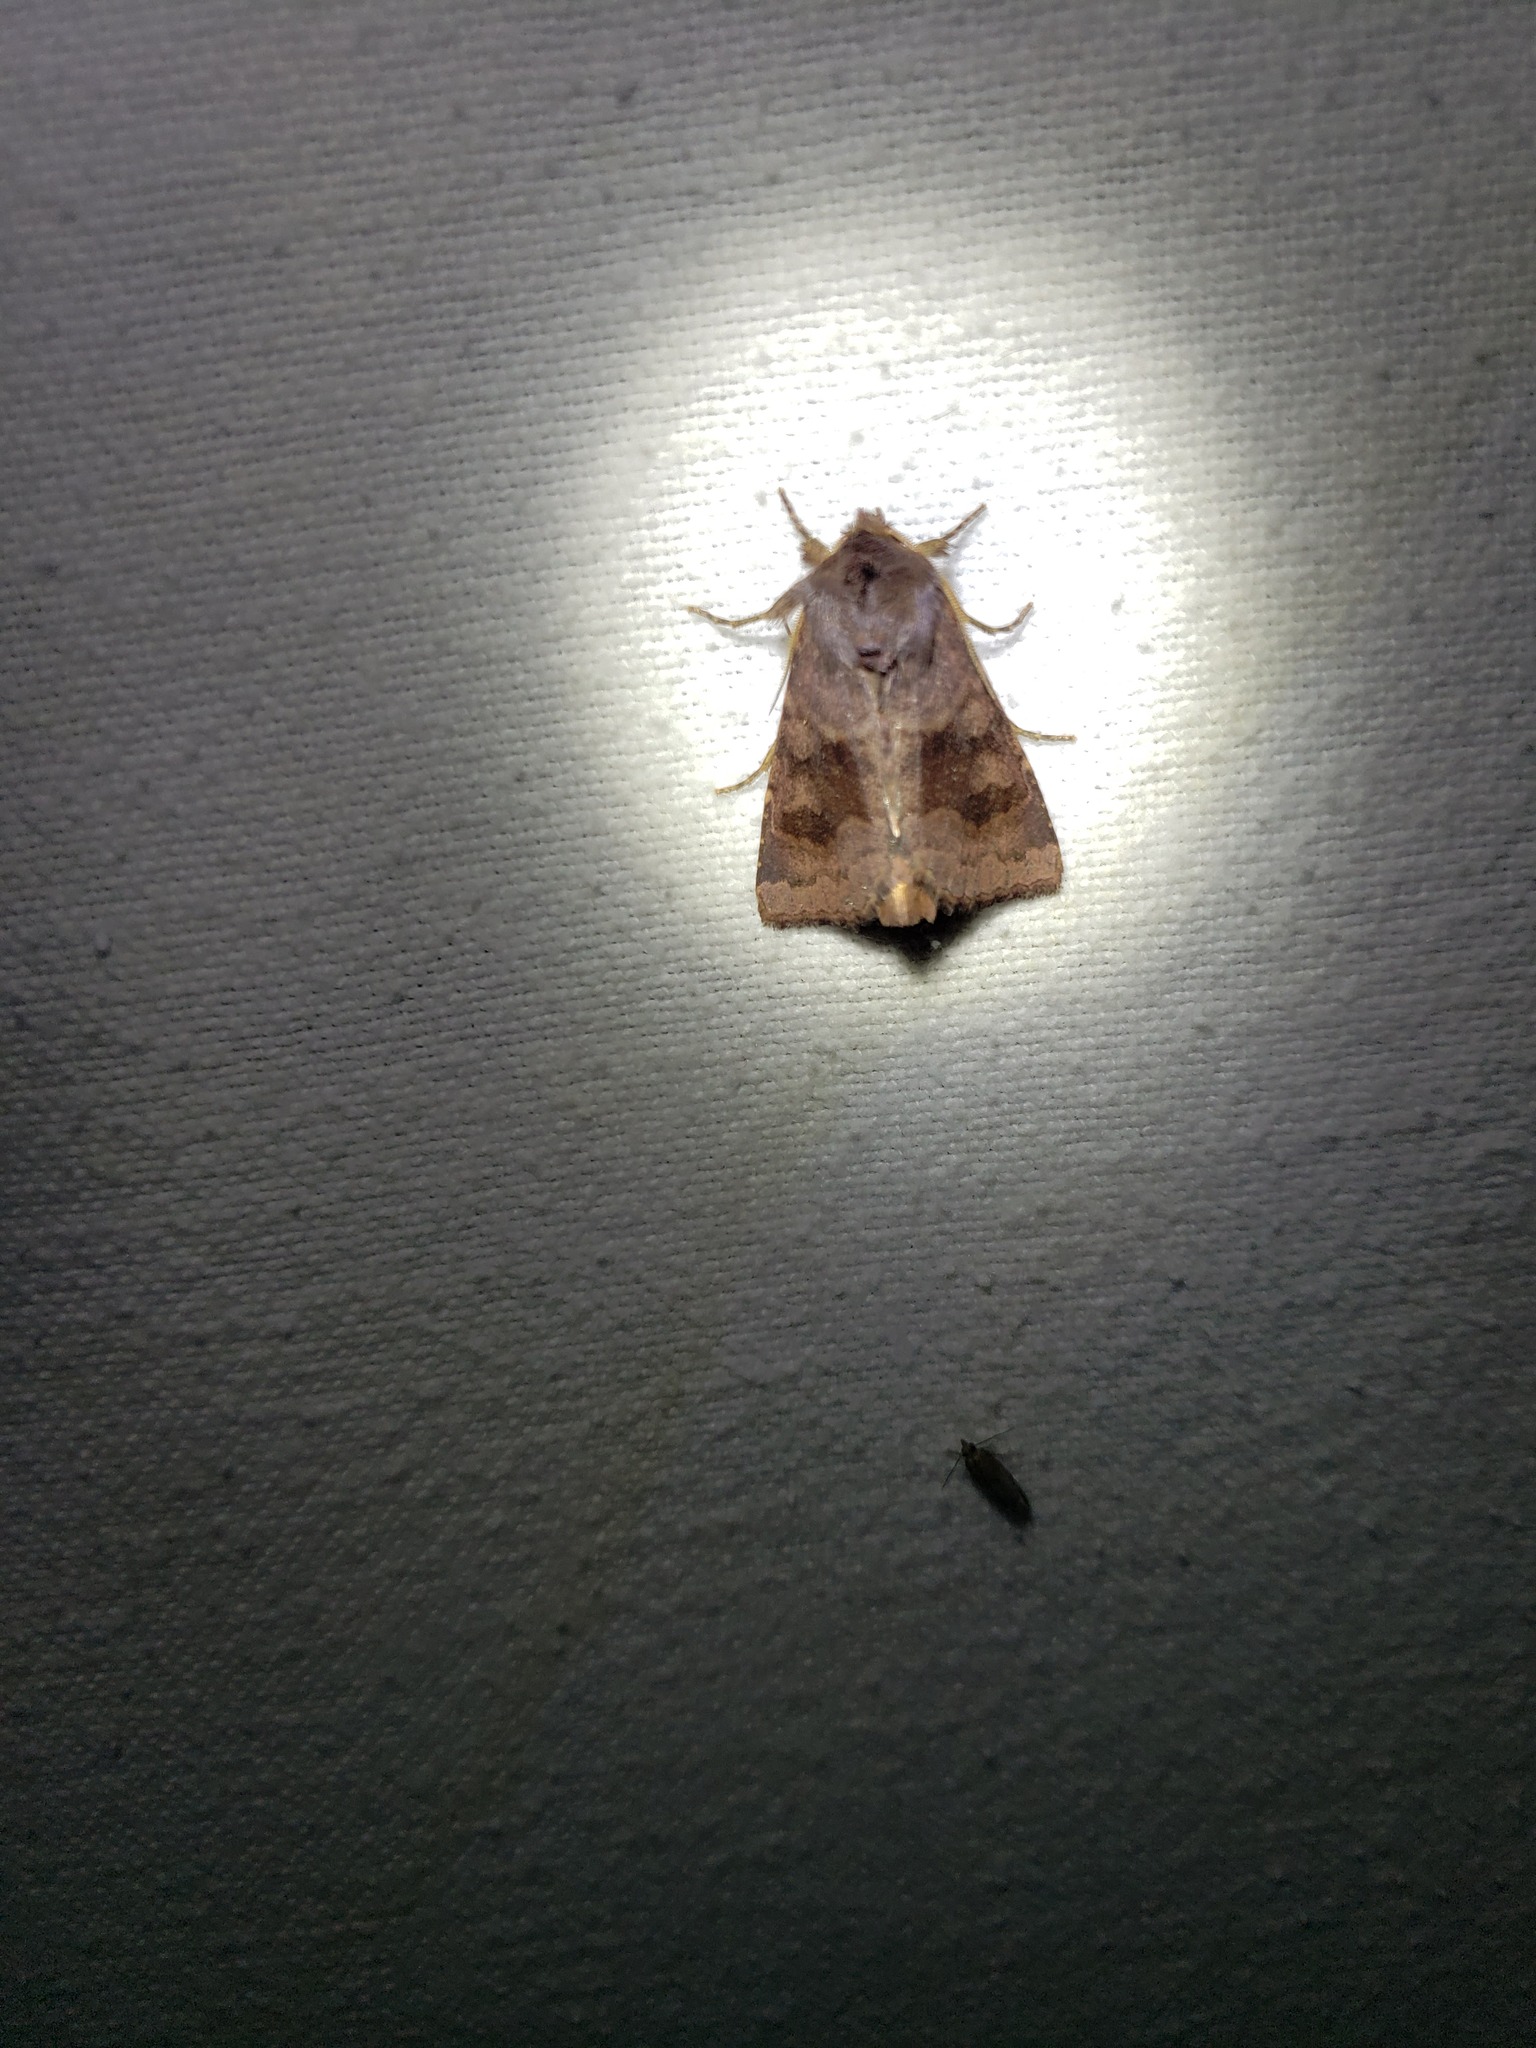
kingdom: Animalia
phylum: Arthropoda
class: Insecta
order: Lepidoptera
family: Noctuidae
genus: Nephelodes
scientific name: Nephelodes minians
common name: Bronzed cutworm
